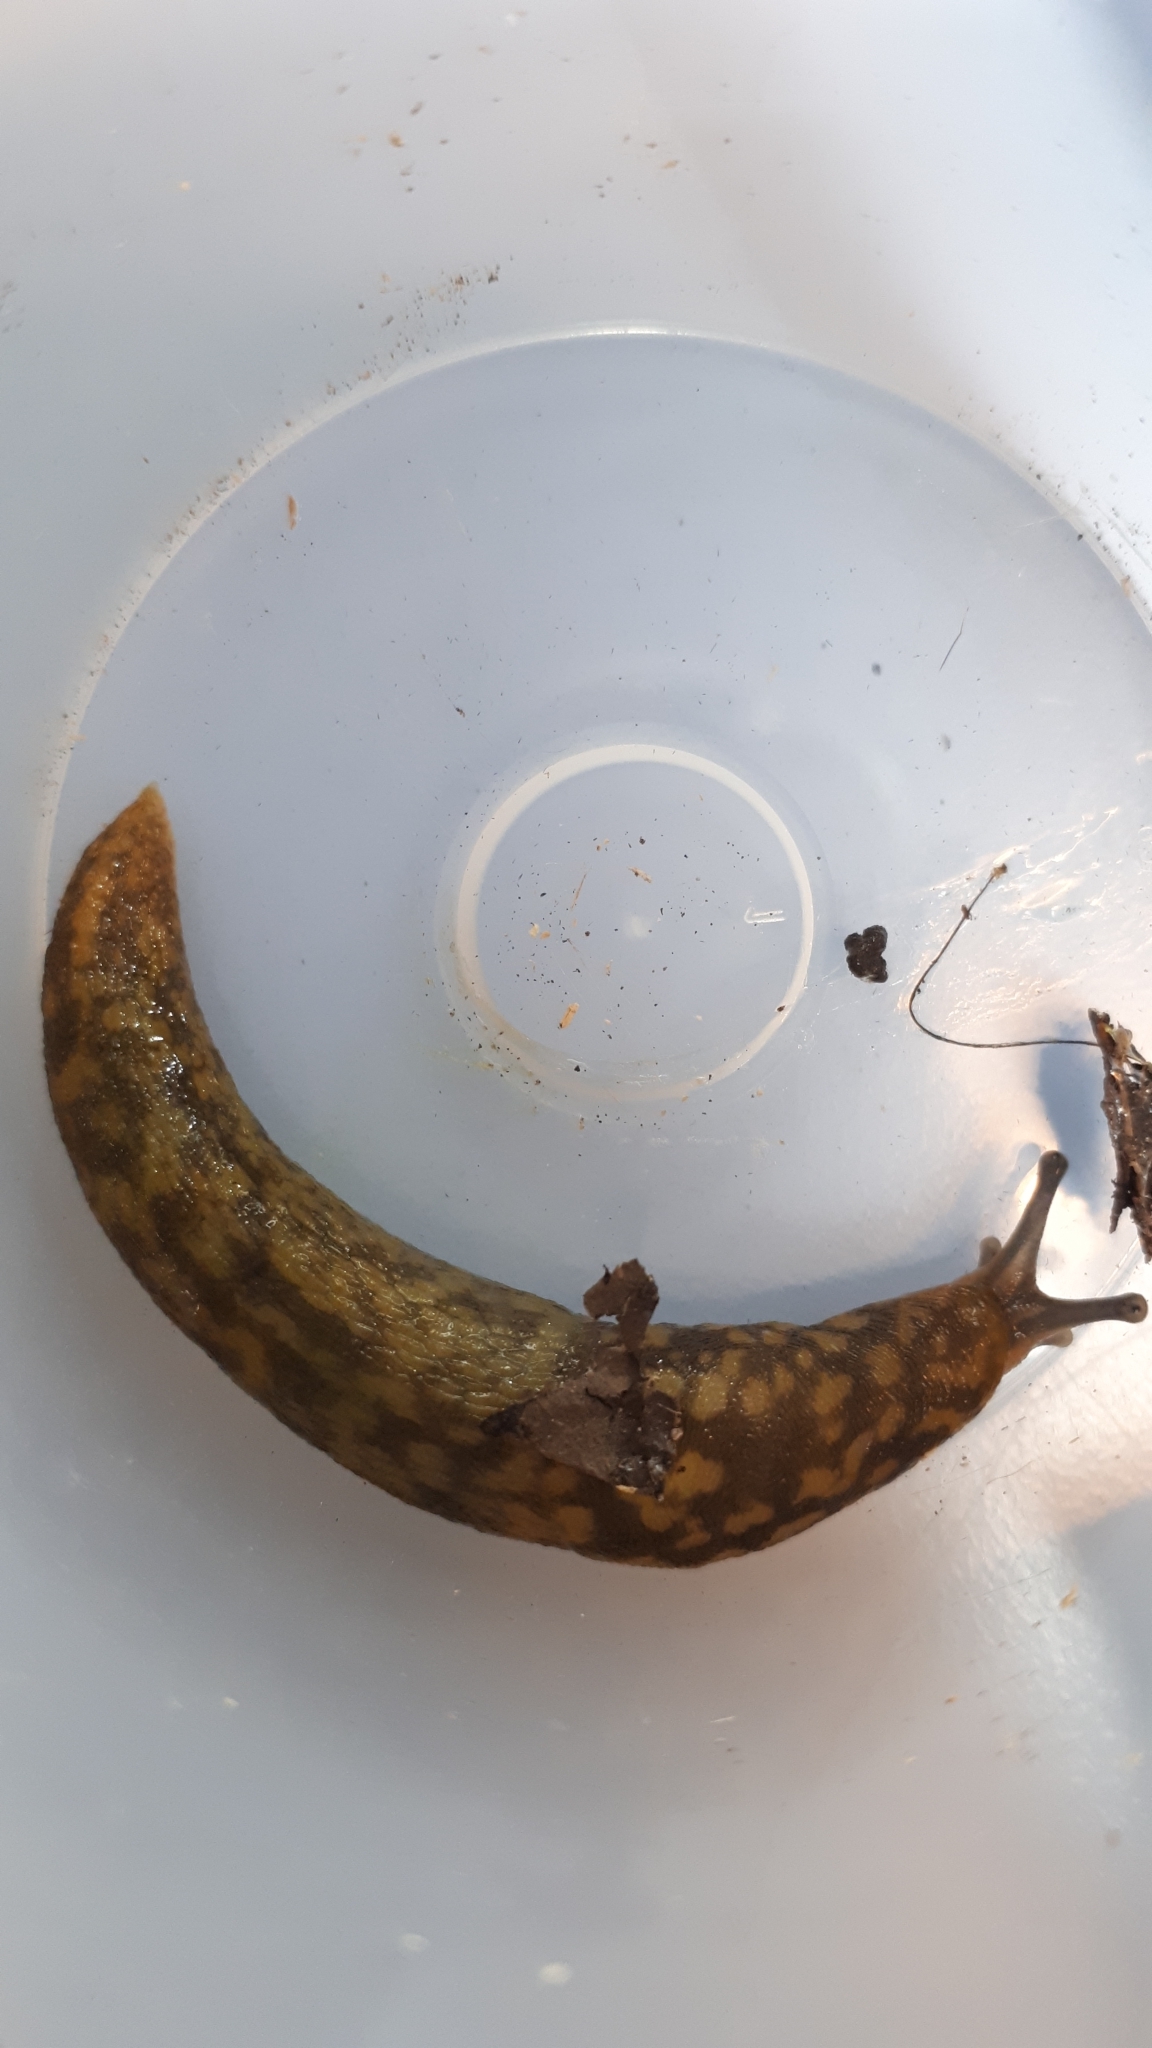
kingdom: Animalia
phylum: Mollusca
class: Gastropoda
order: Stylommatophora
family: Limacidae
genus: Limacus
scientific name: Limacus maculatus
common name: Irish yellow slug
